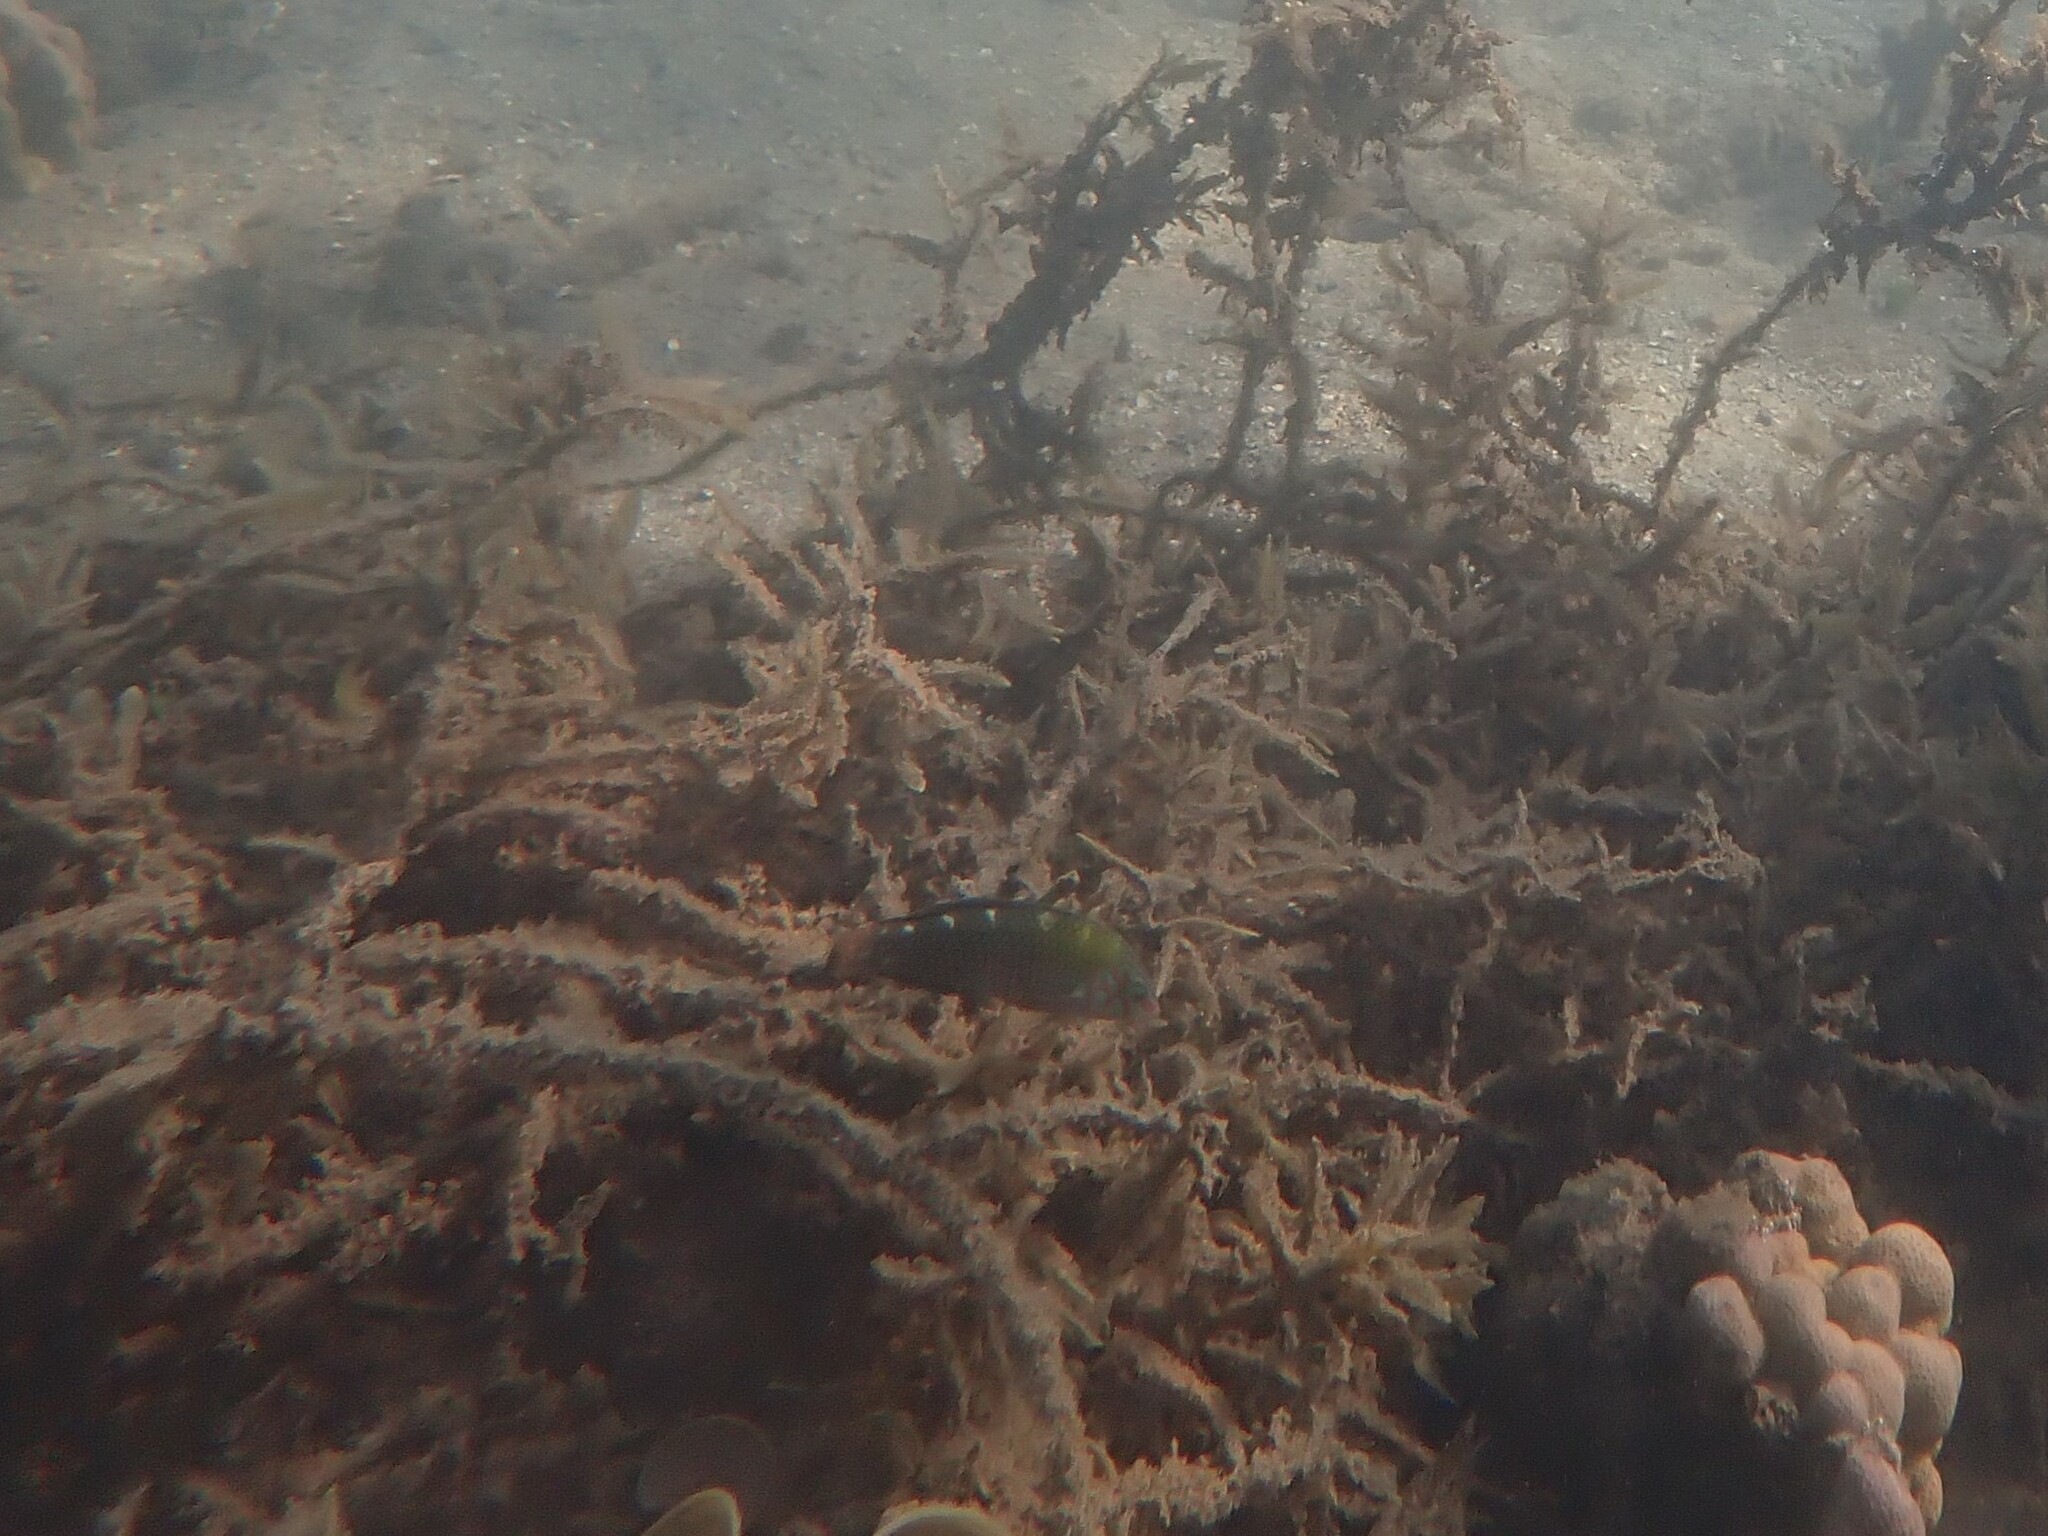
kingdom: Animalia
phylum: Chordata
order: Perciformes
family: Labridae
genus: Halichoeres
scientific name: Halichoeres argus
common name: Argus wrasse
